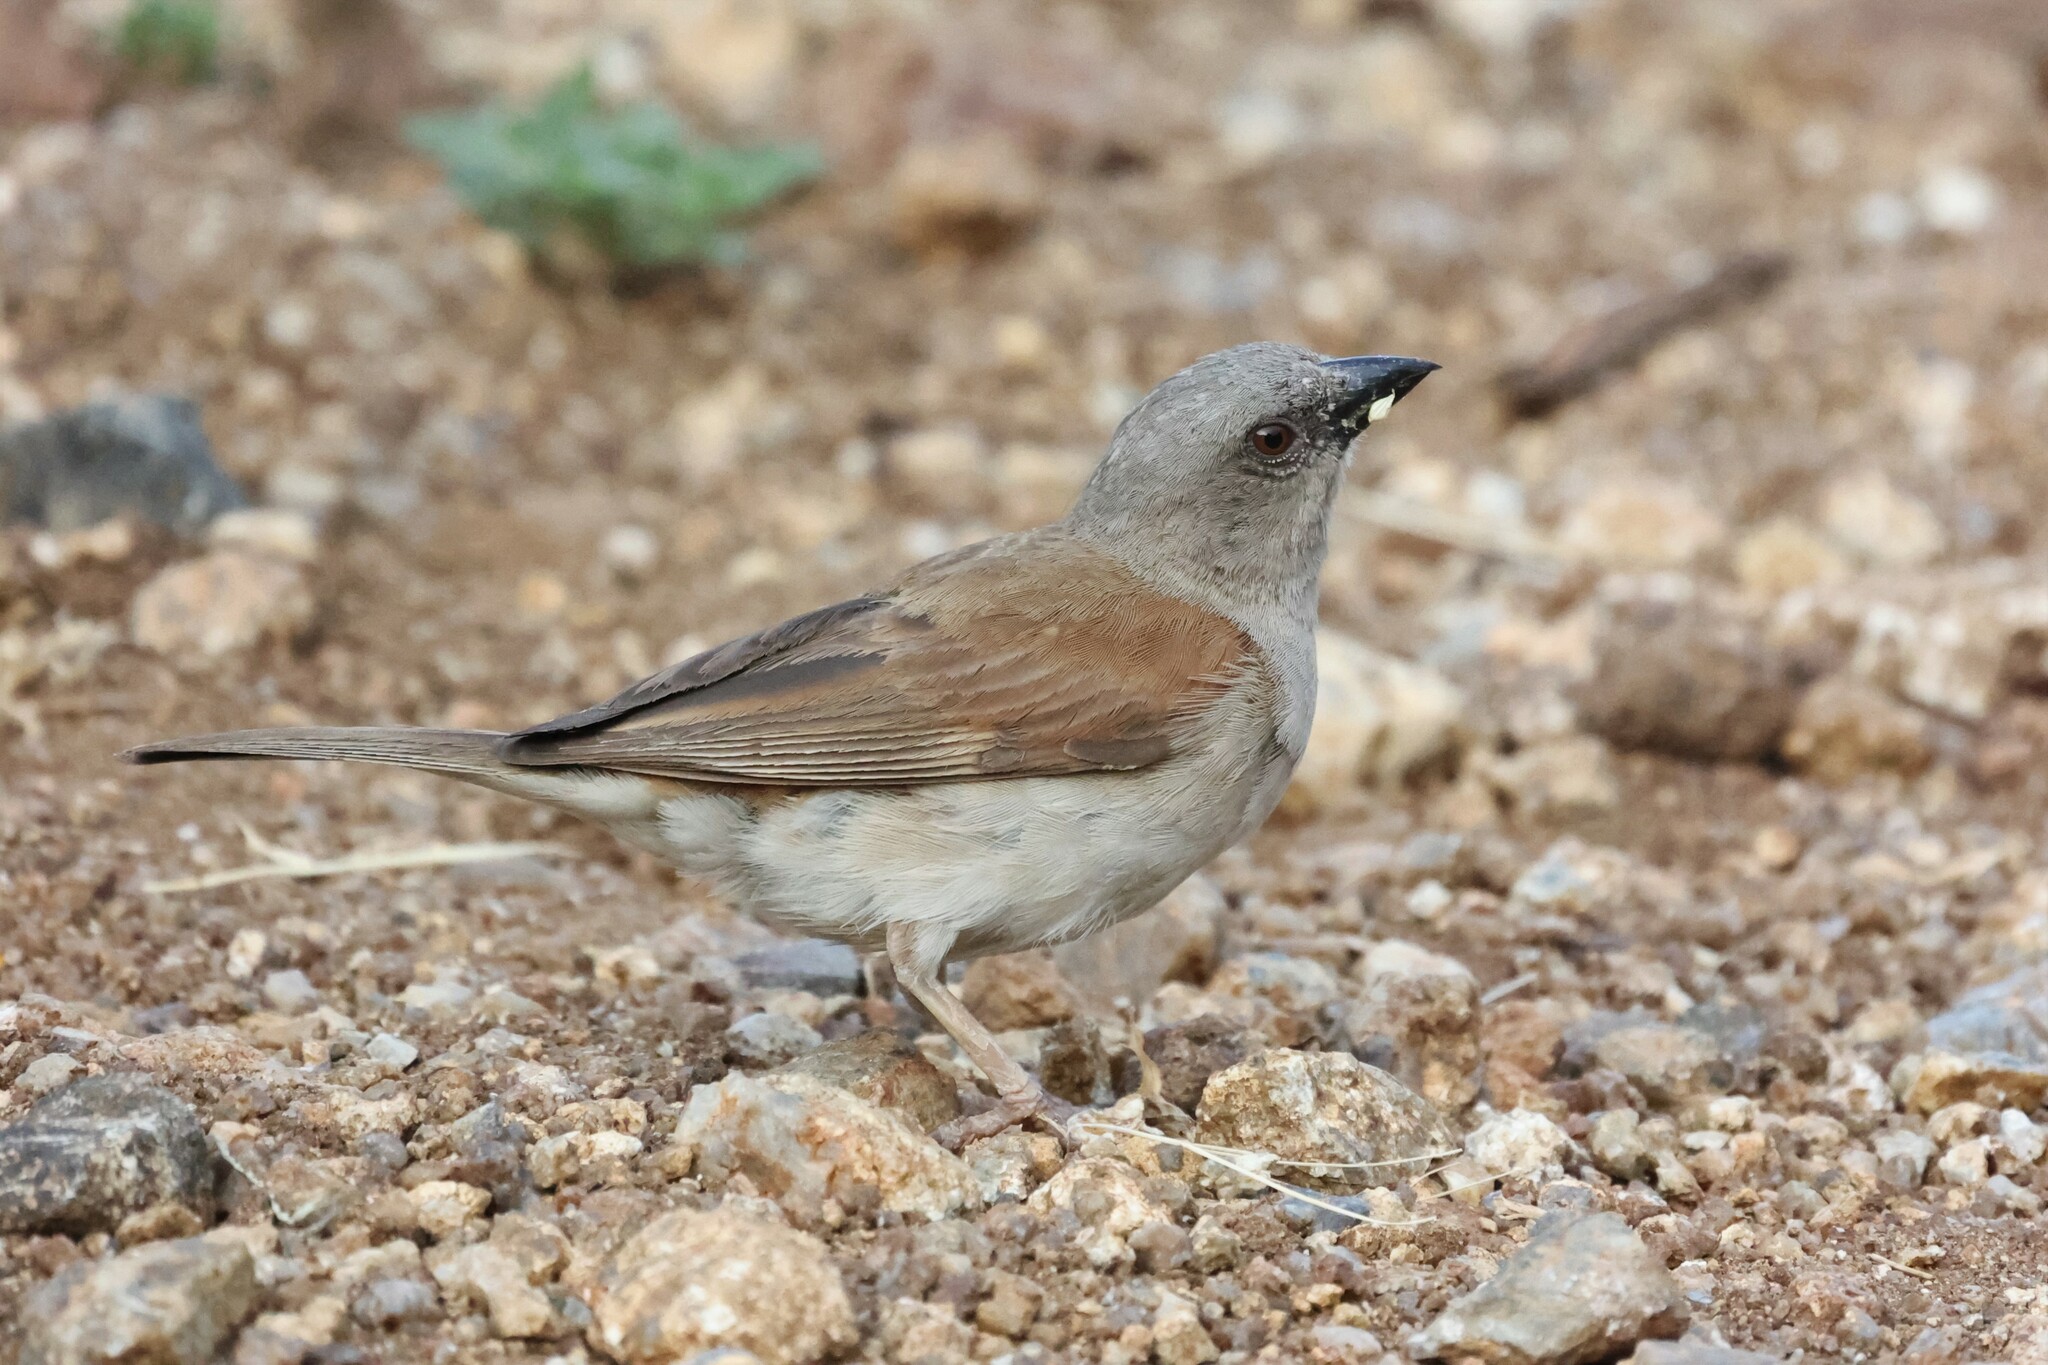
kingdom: Animalia
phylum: Chordata
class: Aves
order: Passeriformes
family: Passeridae
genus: Passer
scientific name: Passer griseus
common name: Northern grey-headed sparrow
